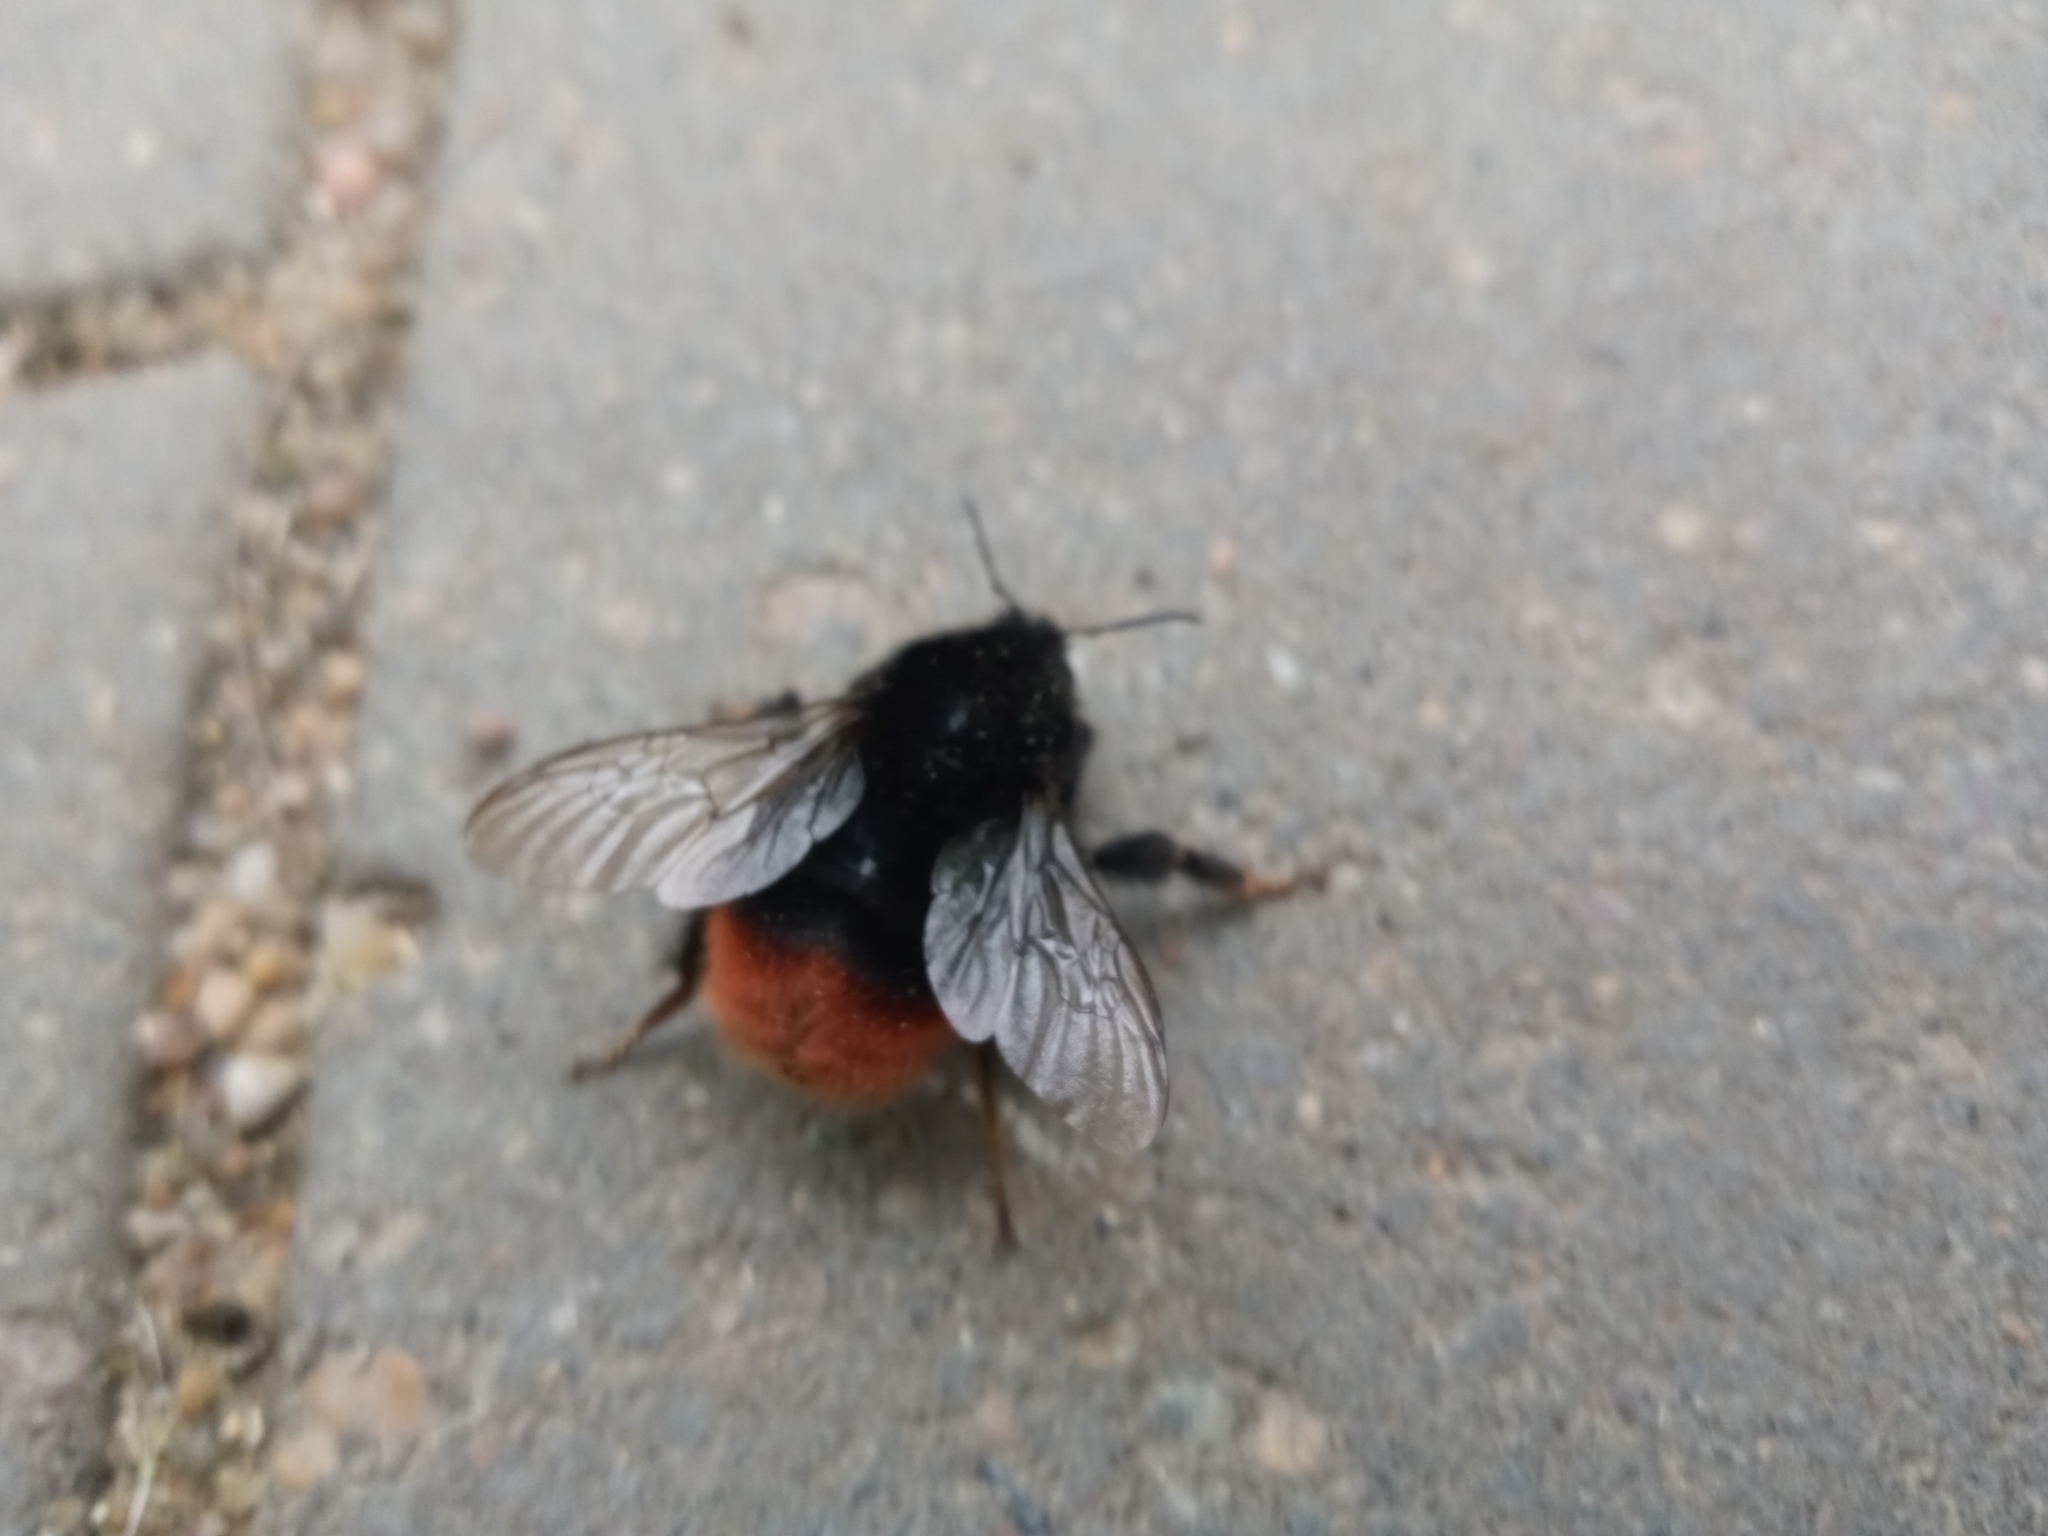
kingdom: Animalia
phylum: Arthropoda
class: Insecta
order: Hymenoptera
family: Apidae
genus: Bombus
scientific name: Bombus lapidarius
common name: Large red-tailed humble-bee
